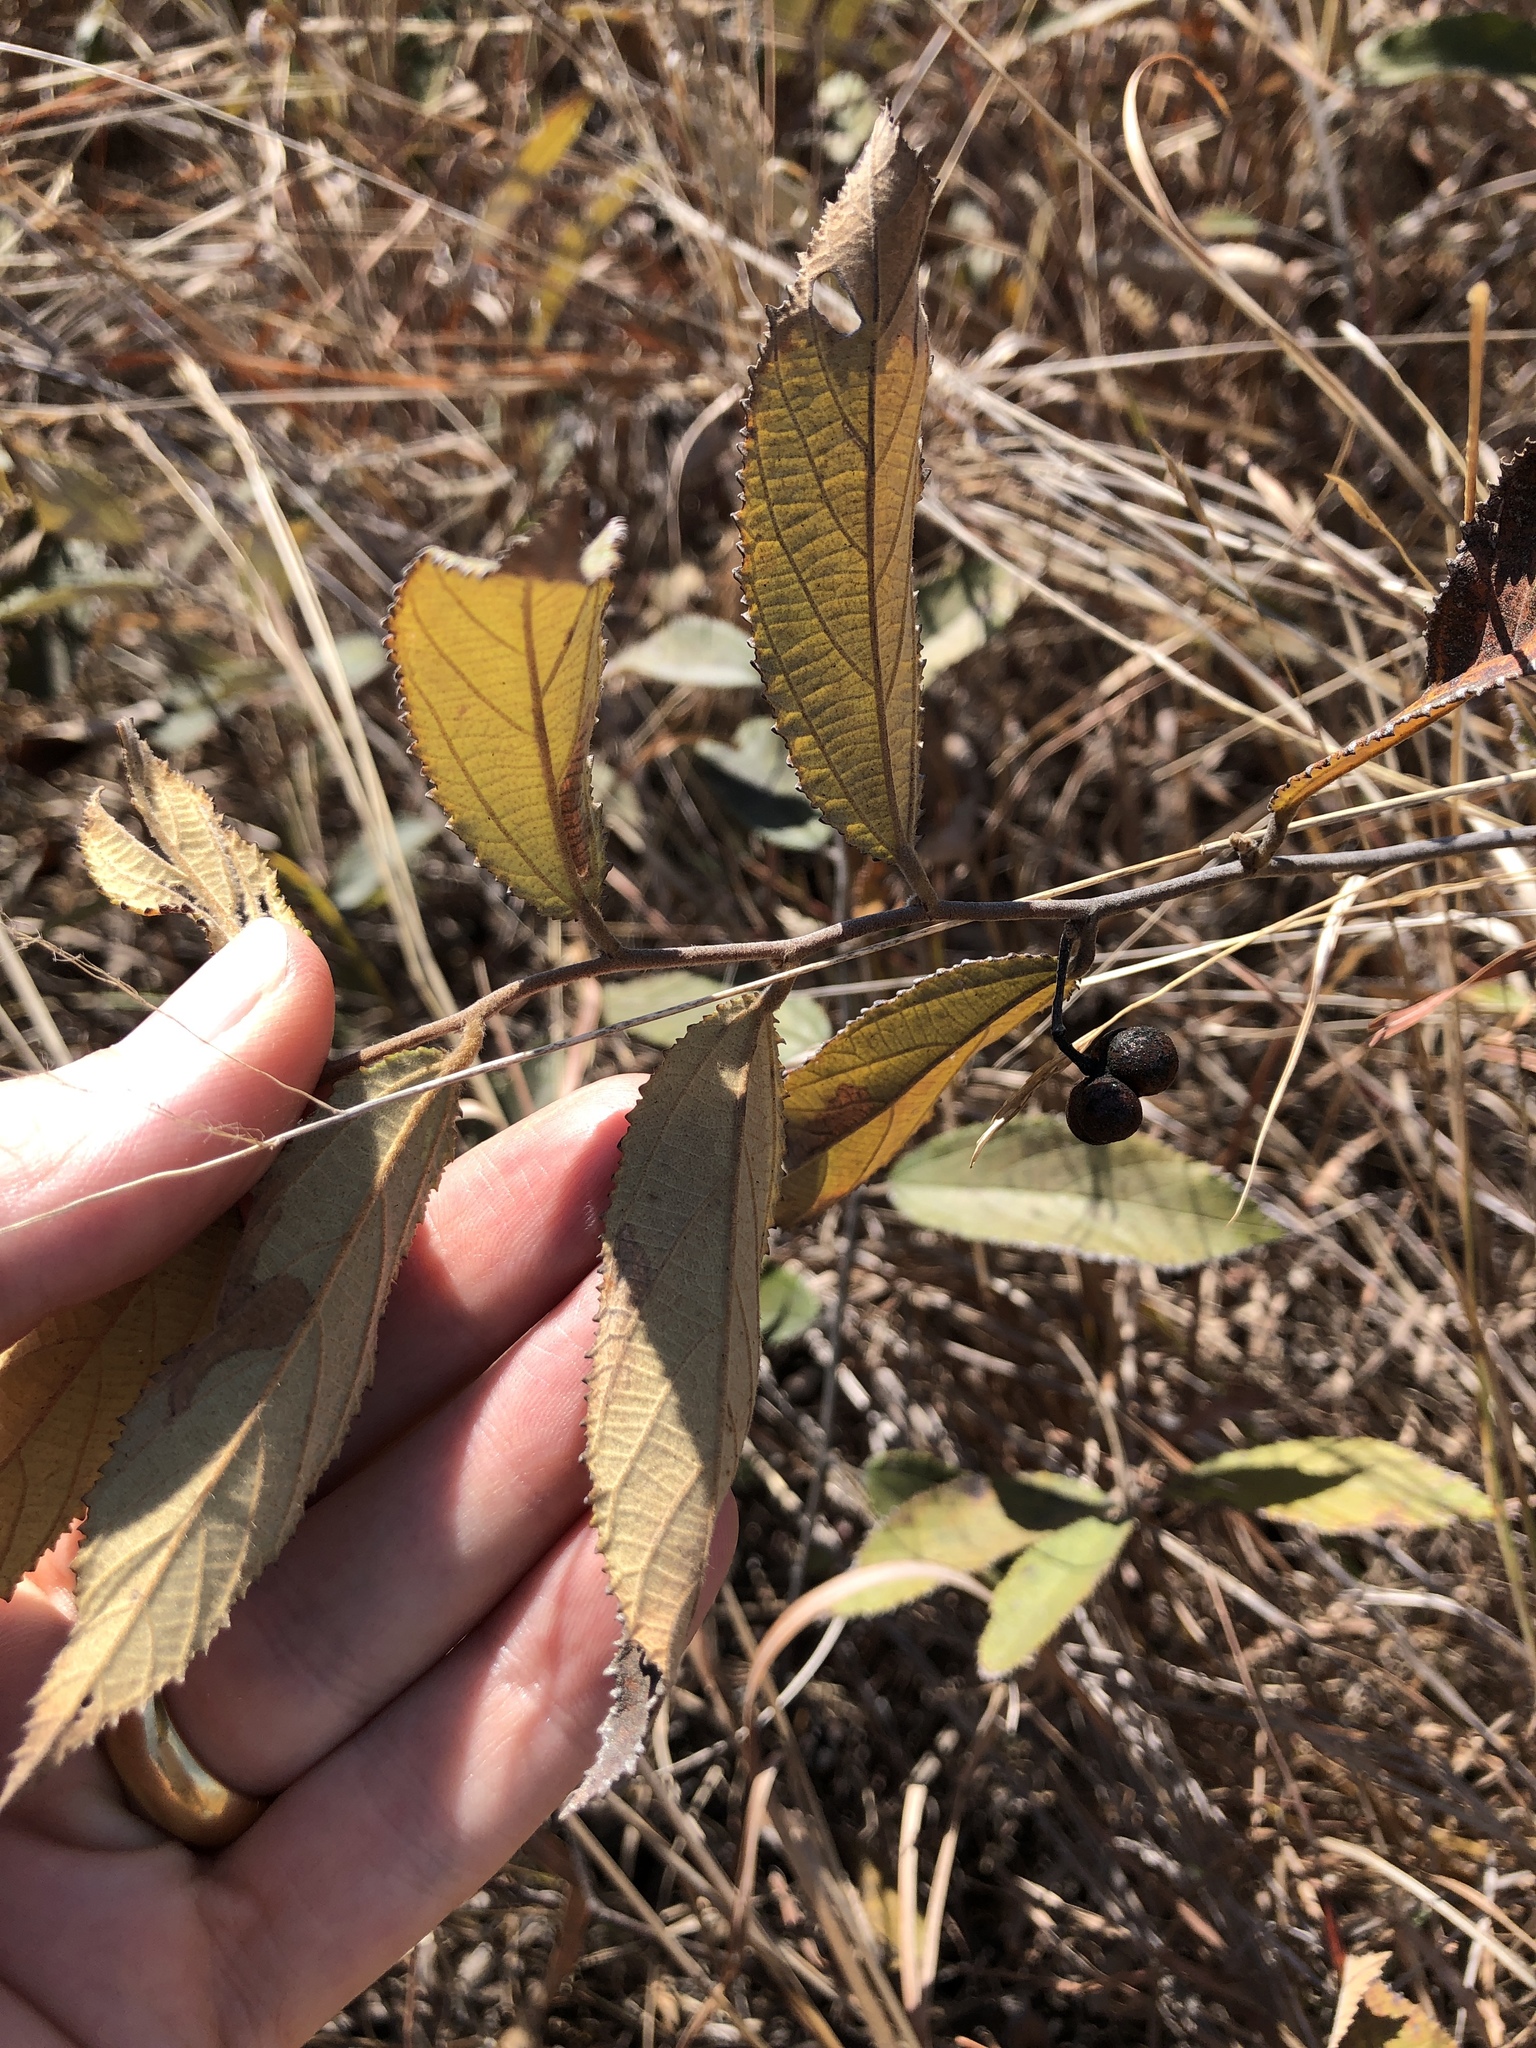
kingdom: Plantae
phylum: Tracheophyta
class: Magnoliopsida
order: Malvales
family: Malvaceae
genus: Grewia
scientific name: Grewia savannicola
